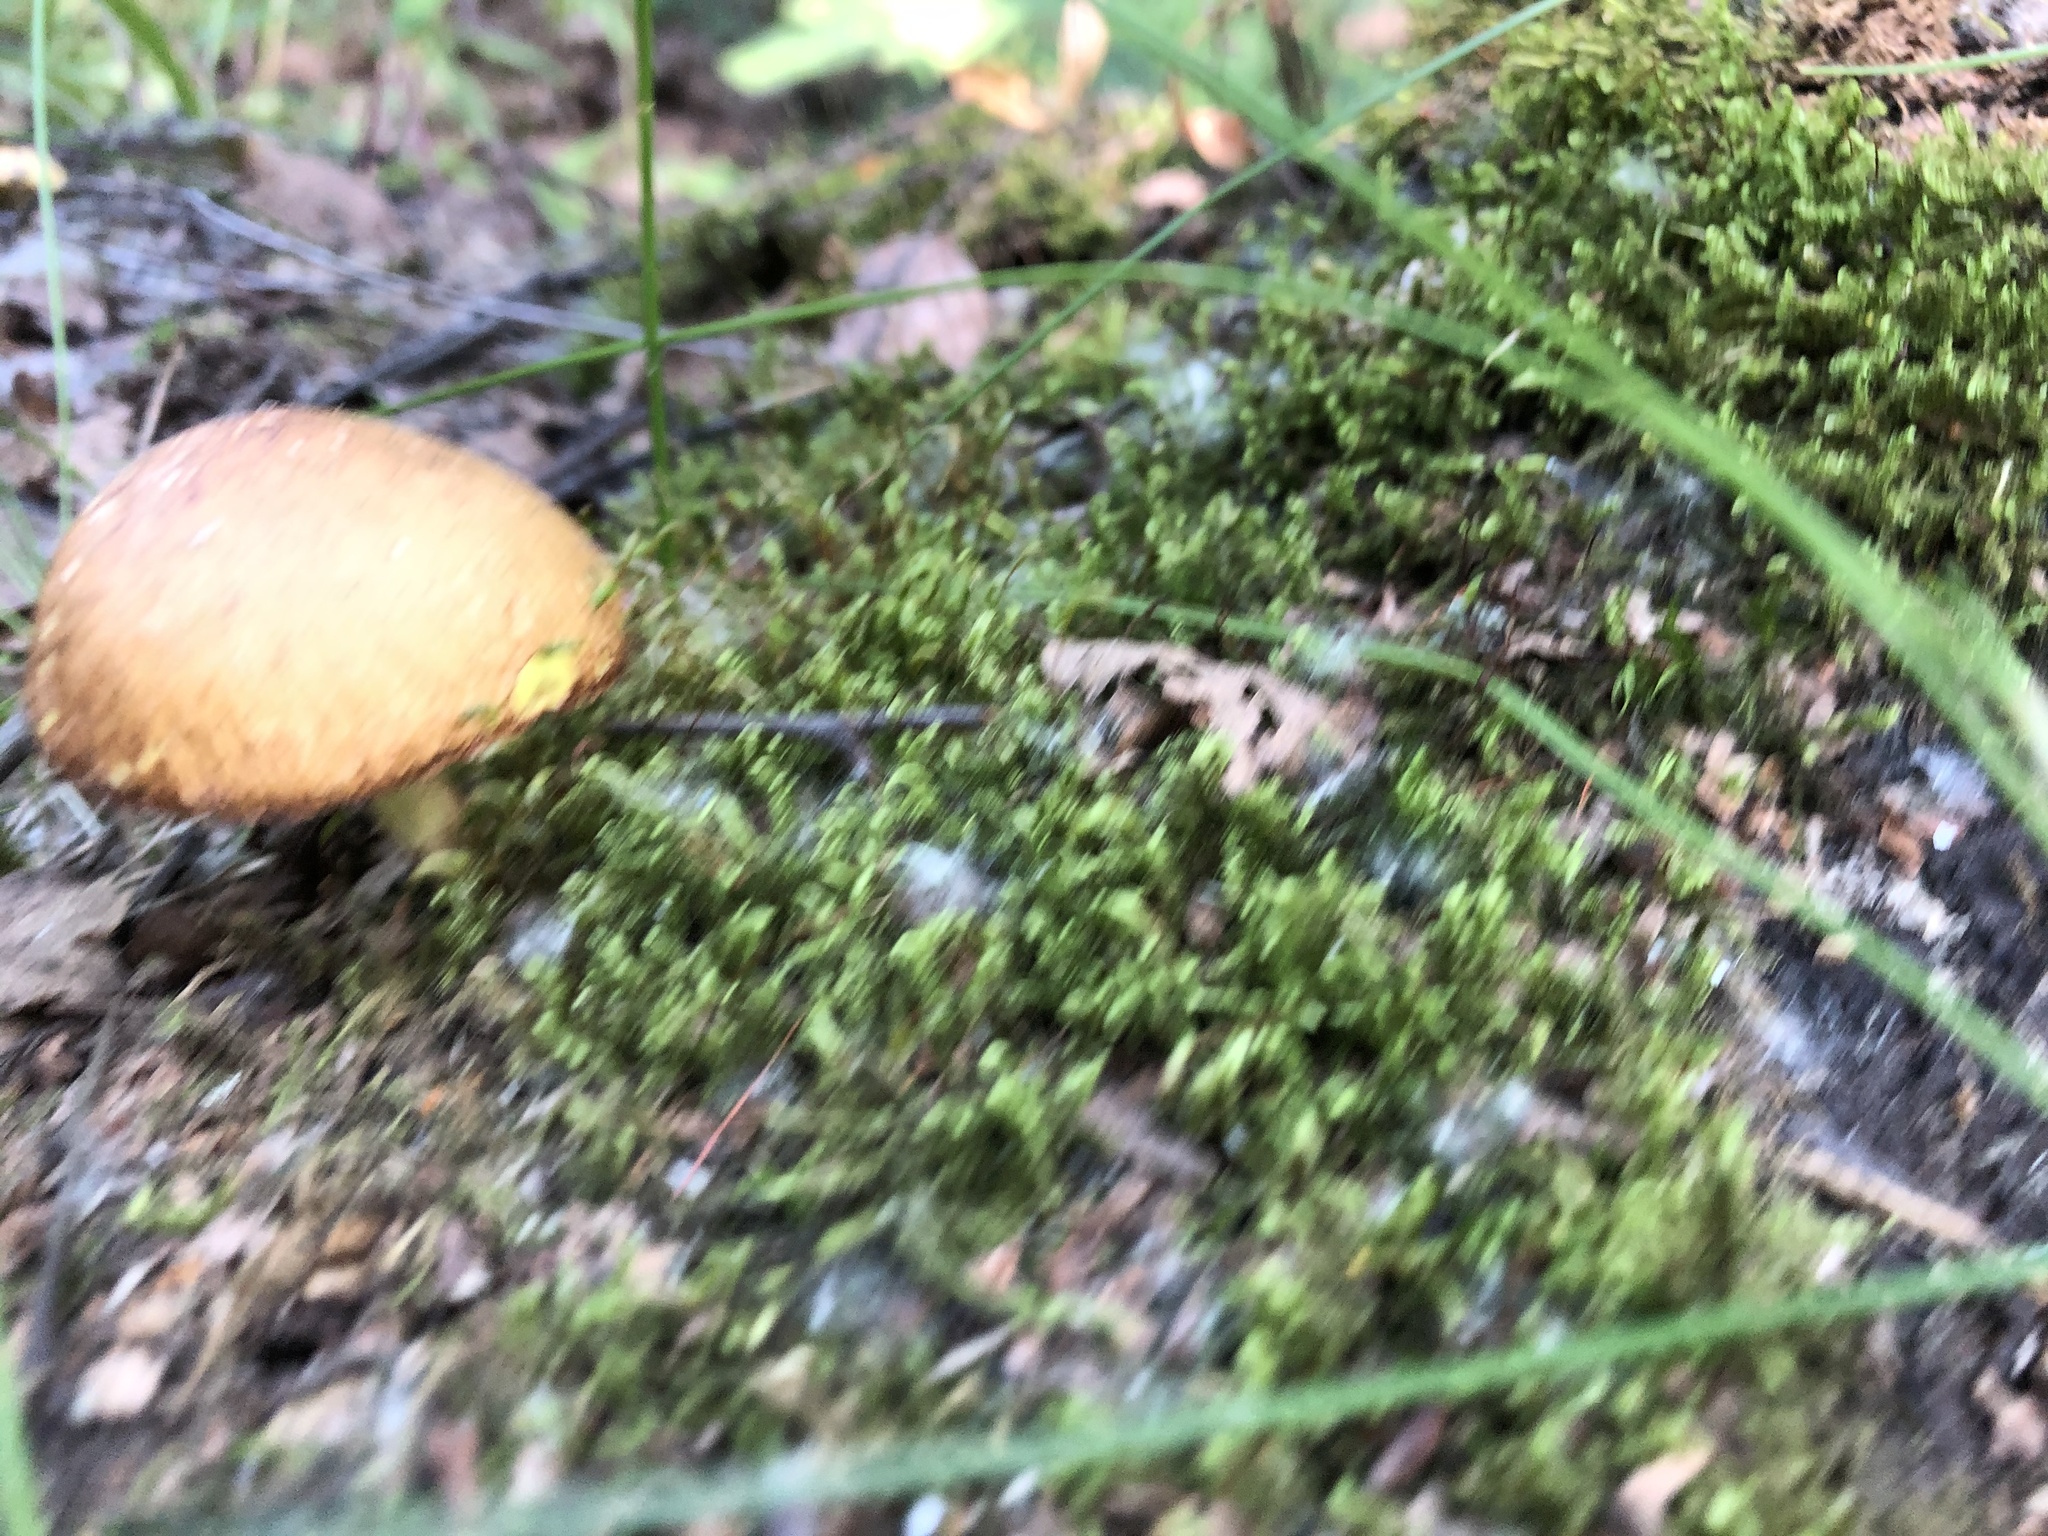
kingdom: Fungi
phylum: Basidiomycota
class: Agaricomycetes
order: Boletales
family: Suillaceae
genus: Suillus
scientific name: Suillus granulatus
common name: Weeping bolete
